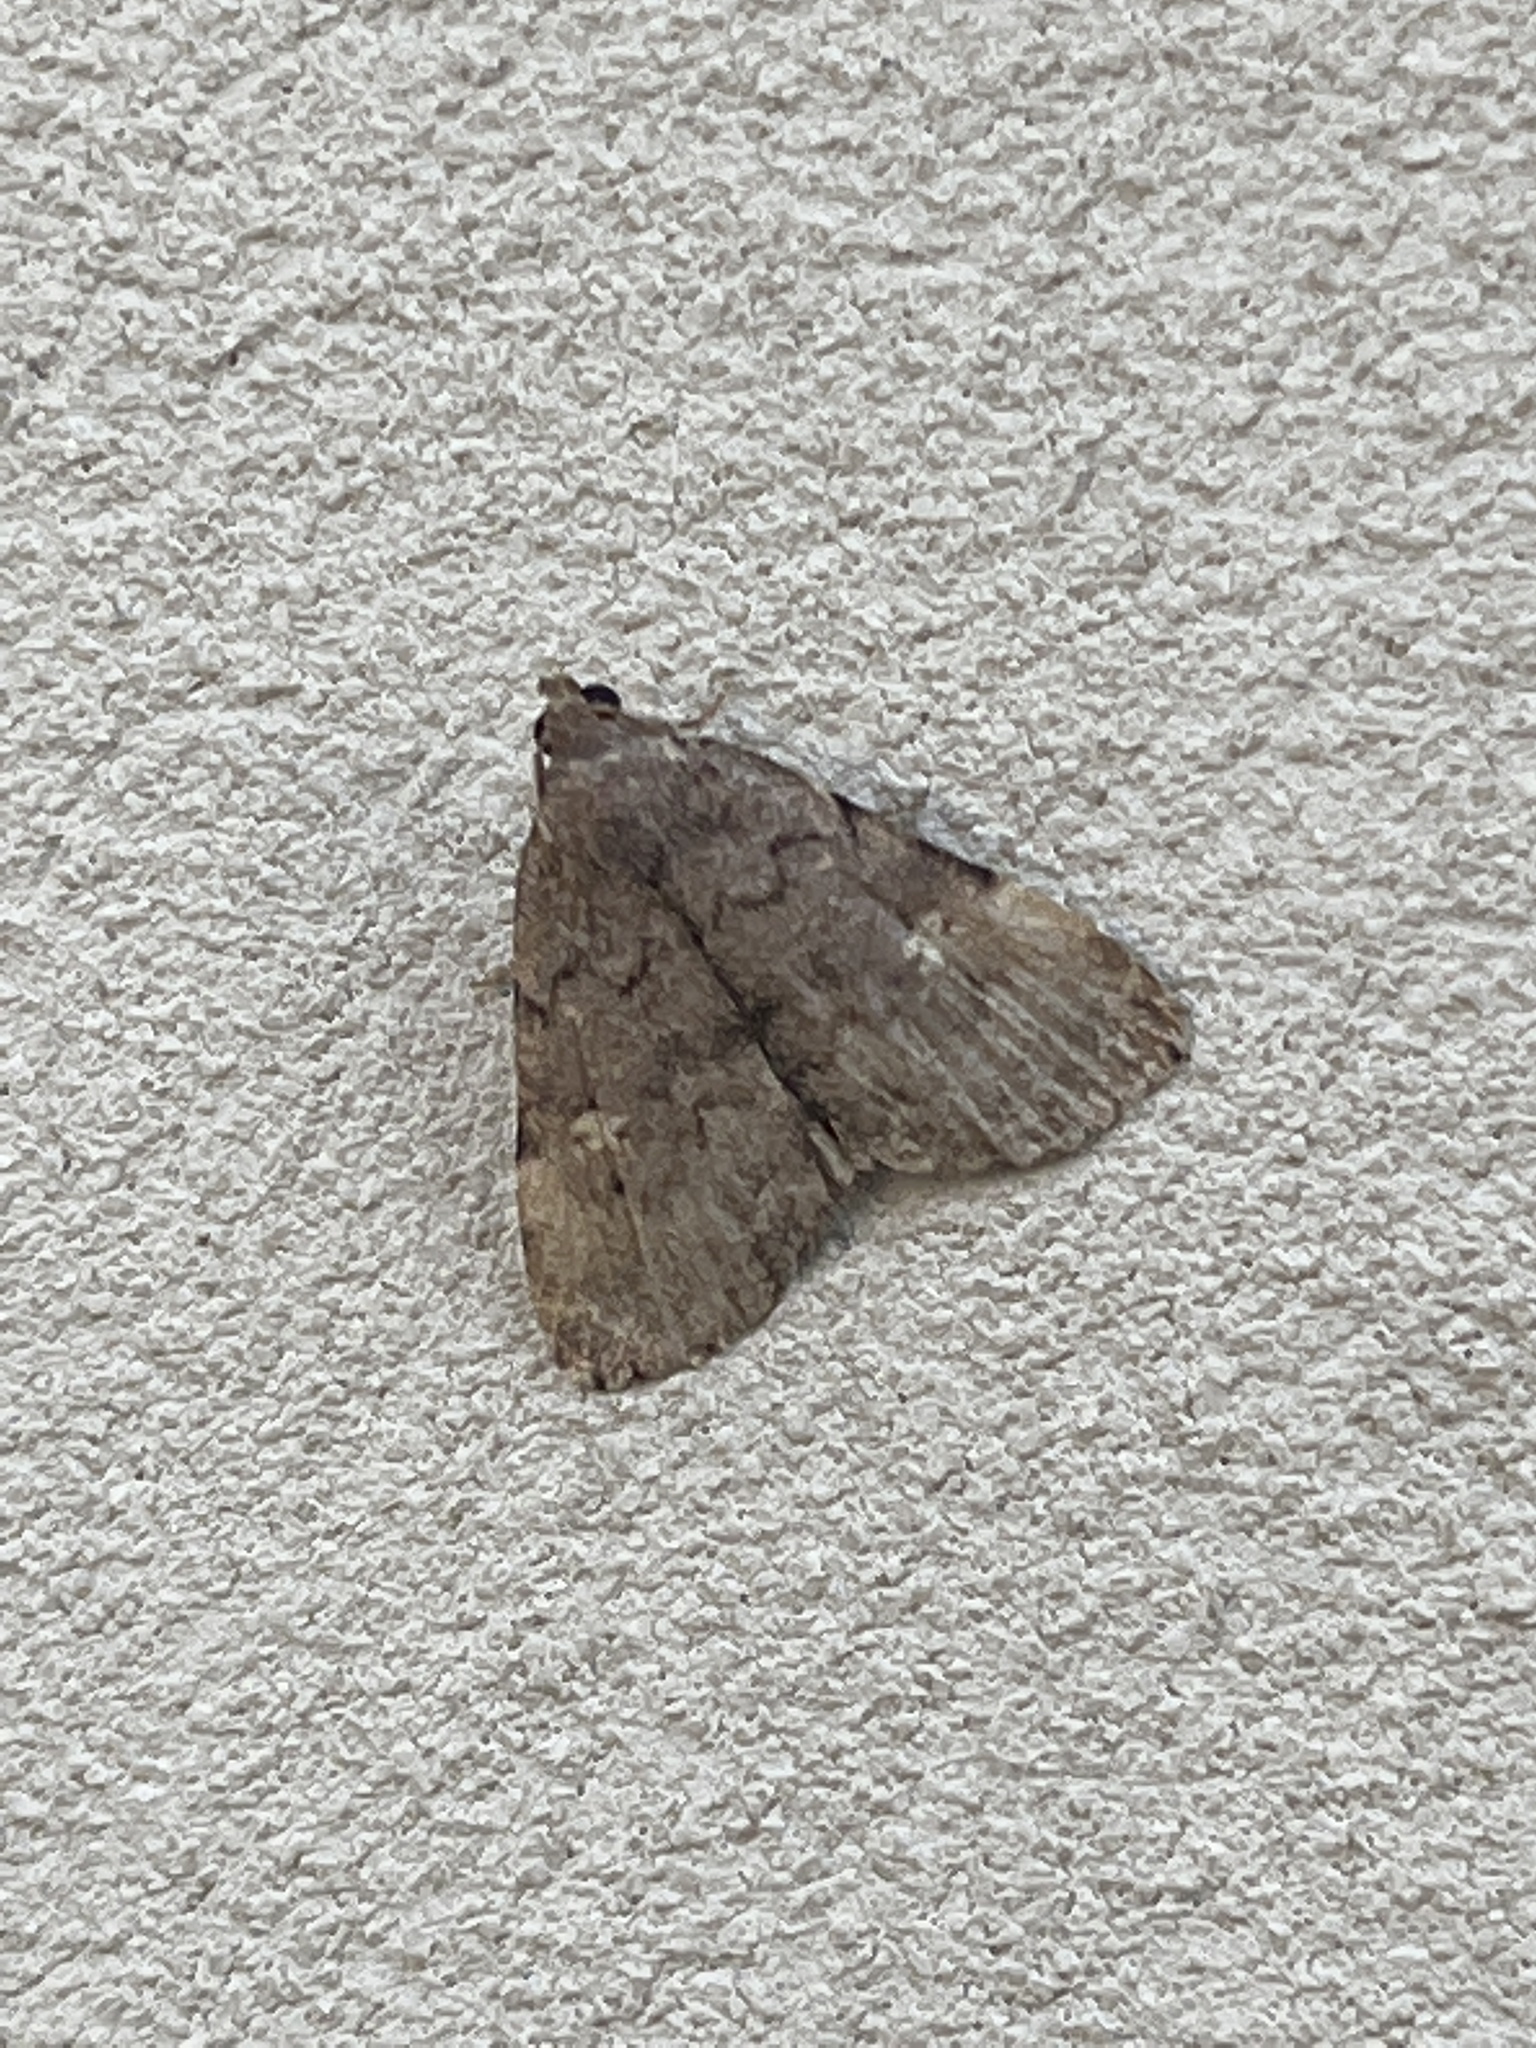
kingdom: Animalia
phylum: Arthropoda
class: Insecta
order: Lepidoptera
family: Erebidae
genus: Idia
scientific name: Idia aemula
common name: Common idia moth
